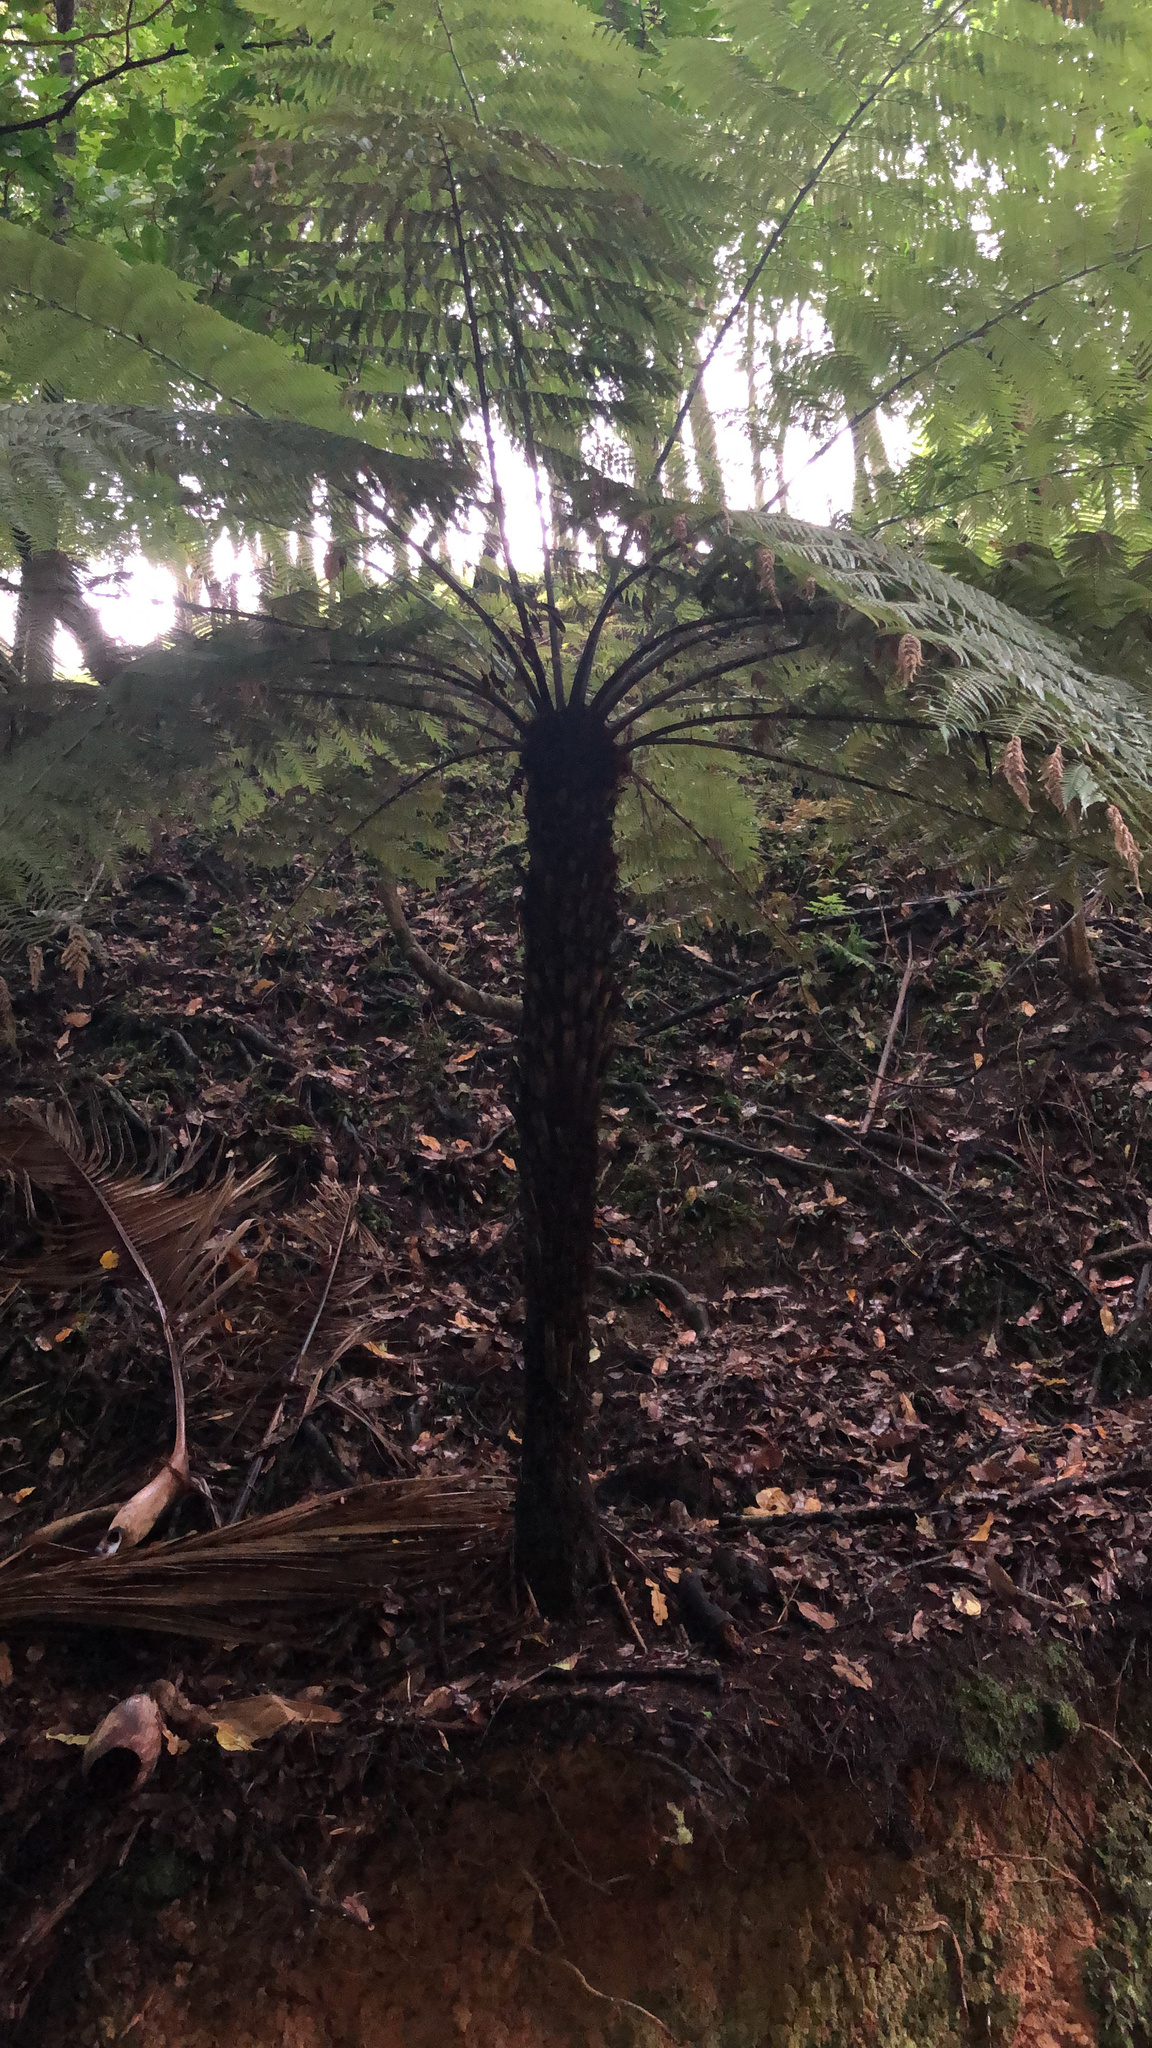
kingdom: Plantae
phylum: Tracheophyta
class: Polypodiopsida
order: Cyatheales
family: Cyatheaceae
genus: Alsophila
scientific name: Alsophila dealbata
